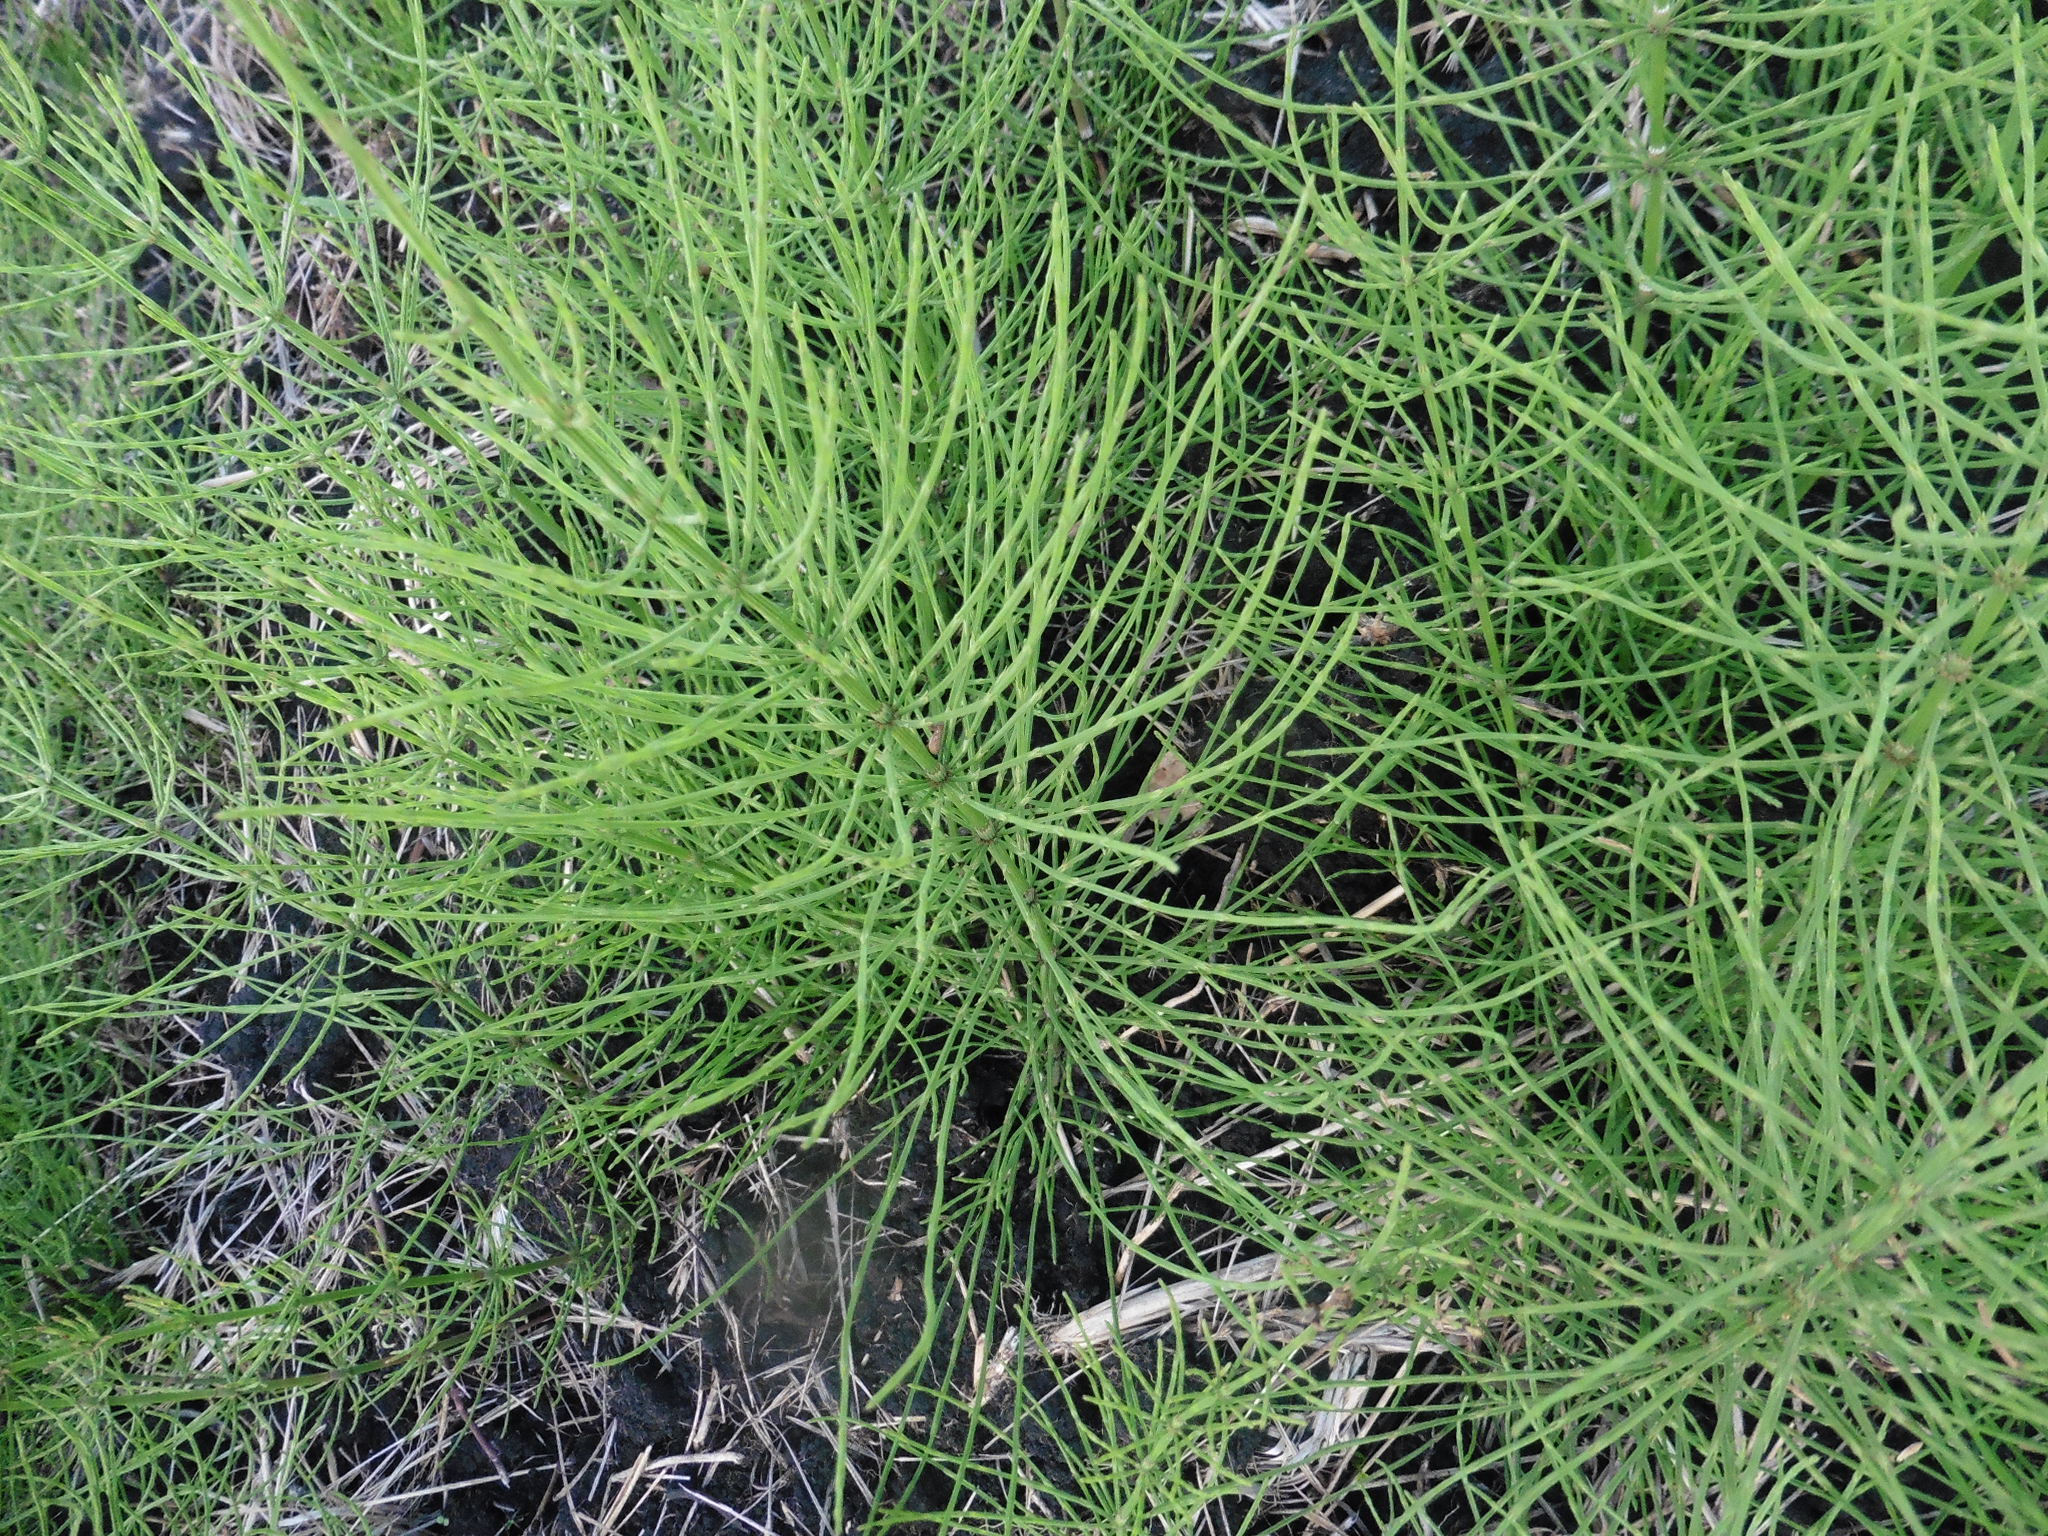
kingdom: Plantae
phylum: Tracheophyta
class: Polypodiopsida
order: Equisetales
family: Equisetaceae
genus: Equisetum
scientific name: Equisetum arvense
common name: Field horsetail
